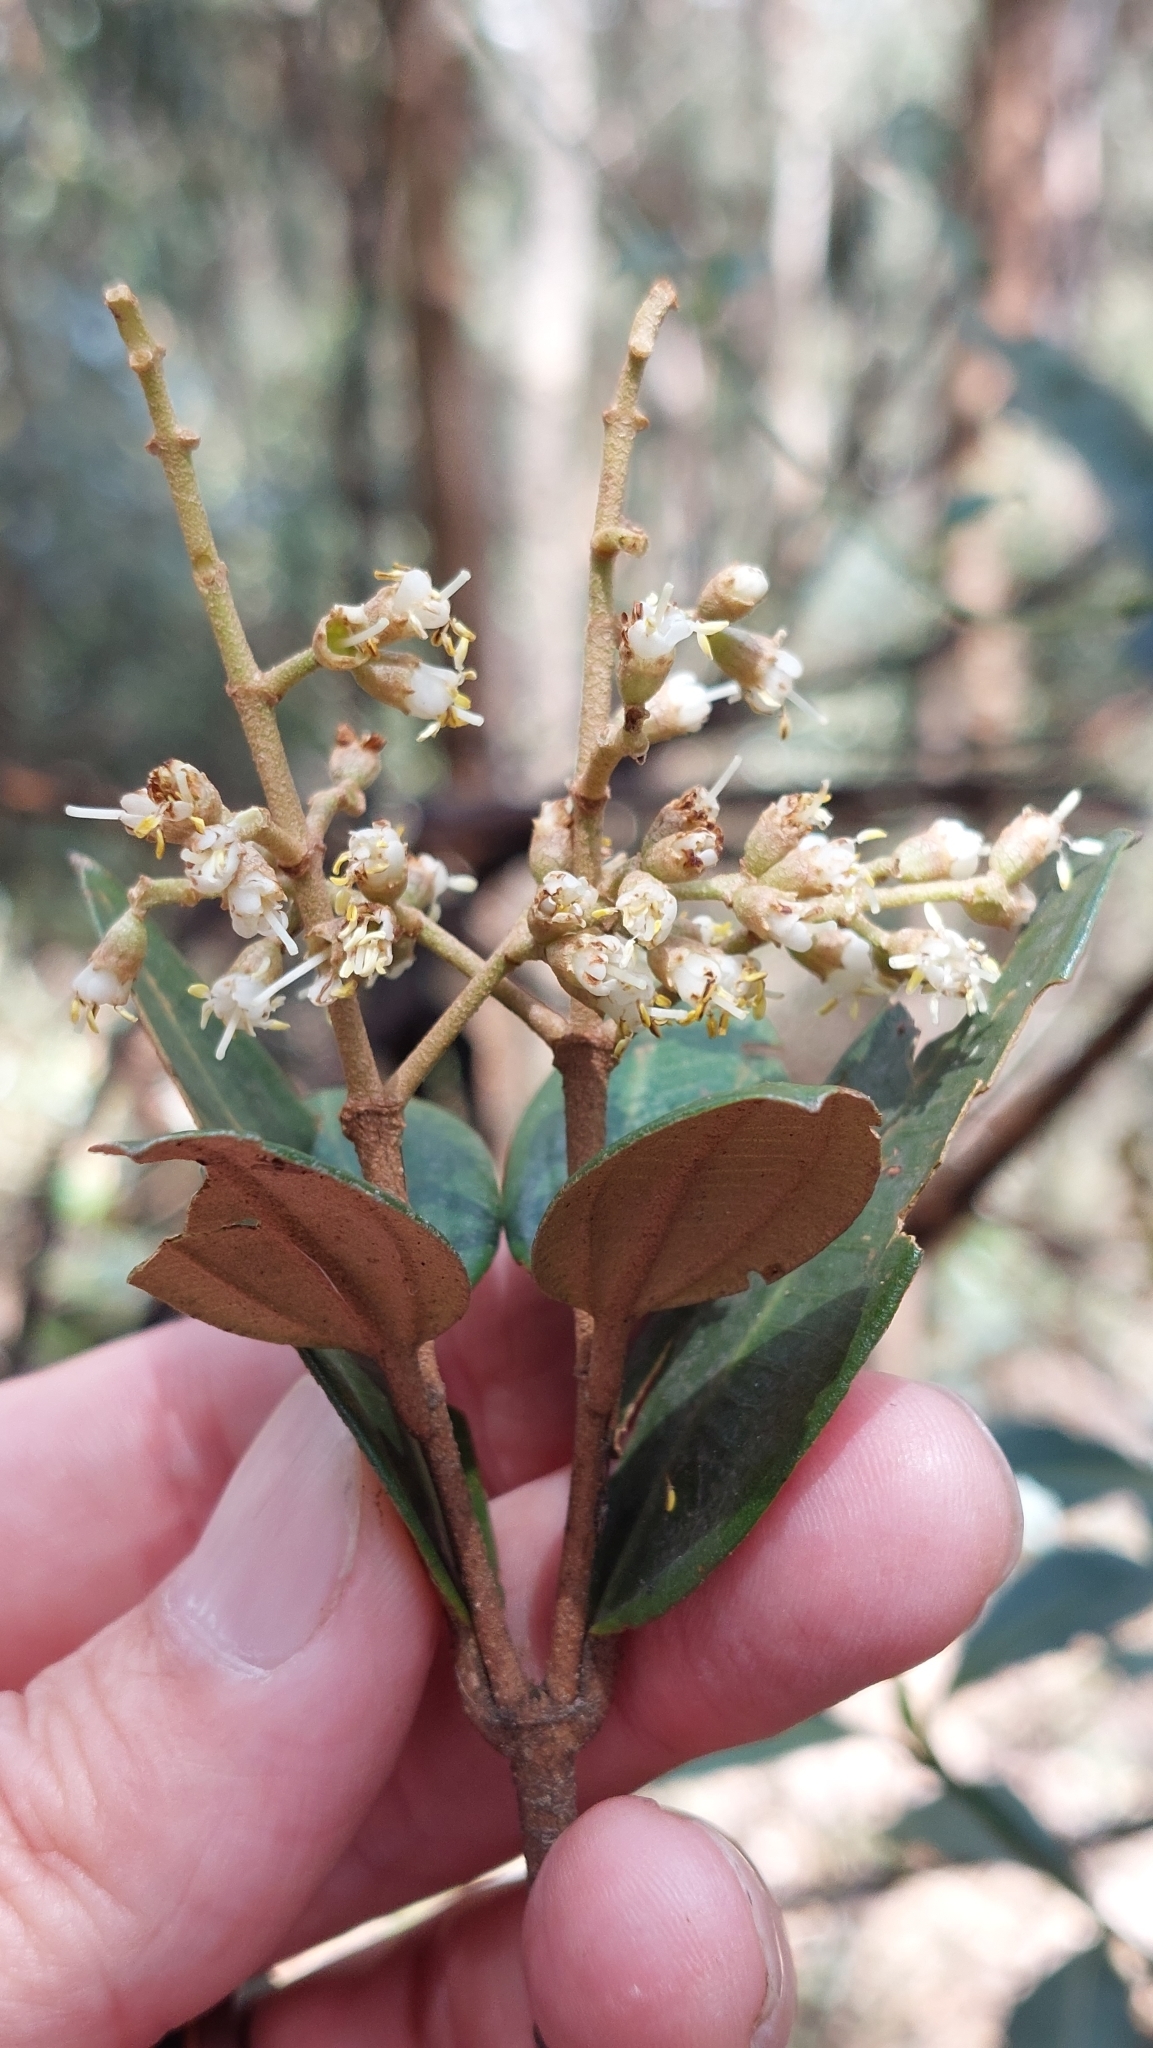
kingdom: Plantae
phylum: Tracheophyta
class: Magnoliopsida
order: Myrtales
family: Melastomataceae
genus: Miconia
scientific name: Miconia squamulosa
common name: Squamulose maya
